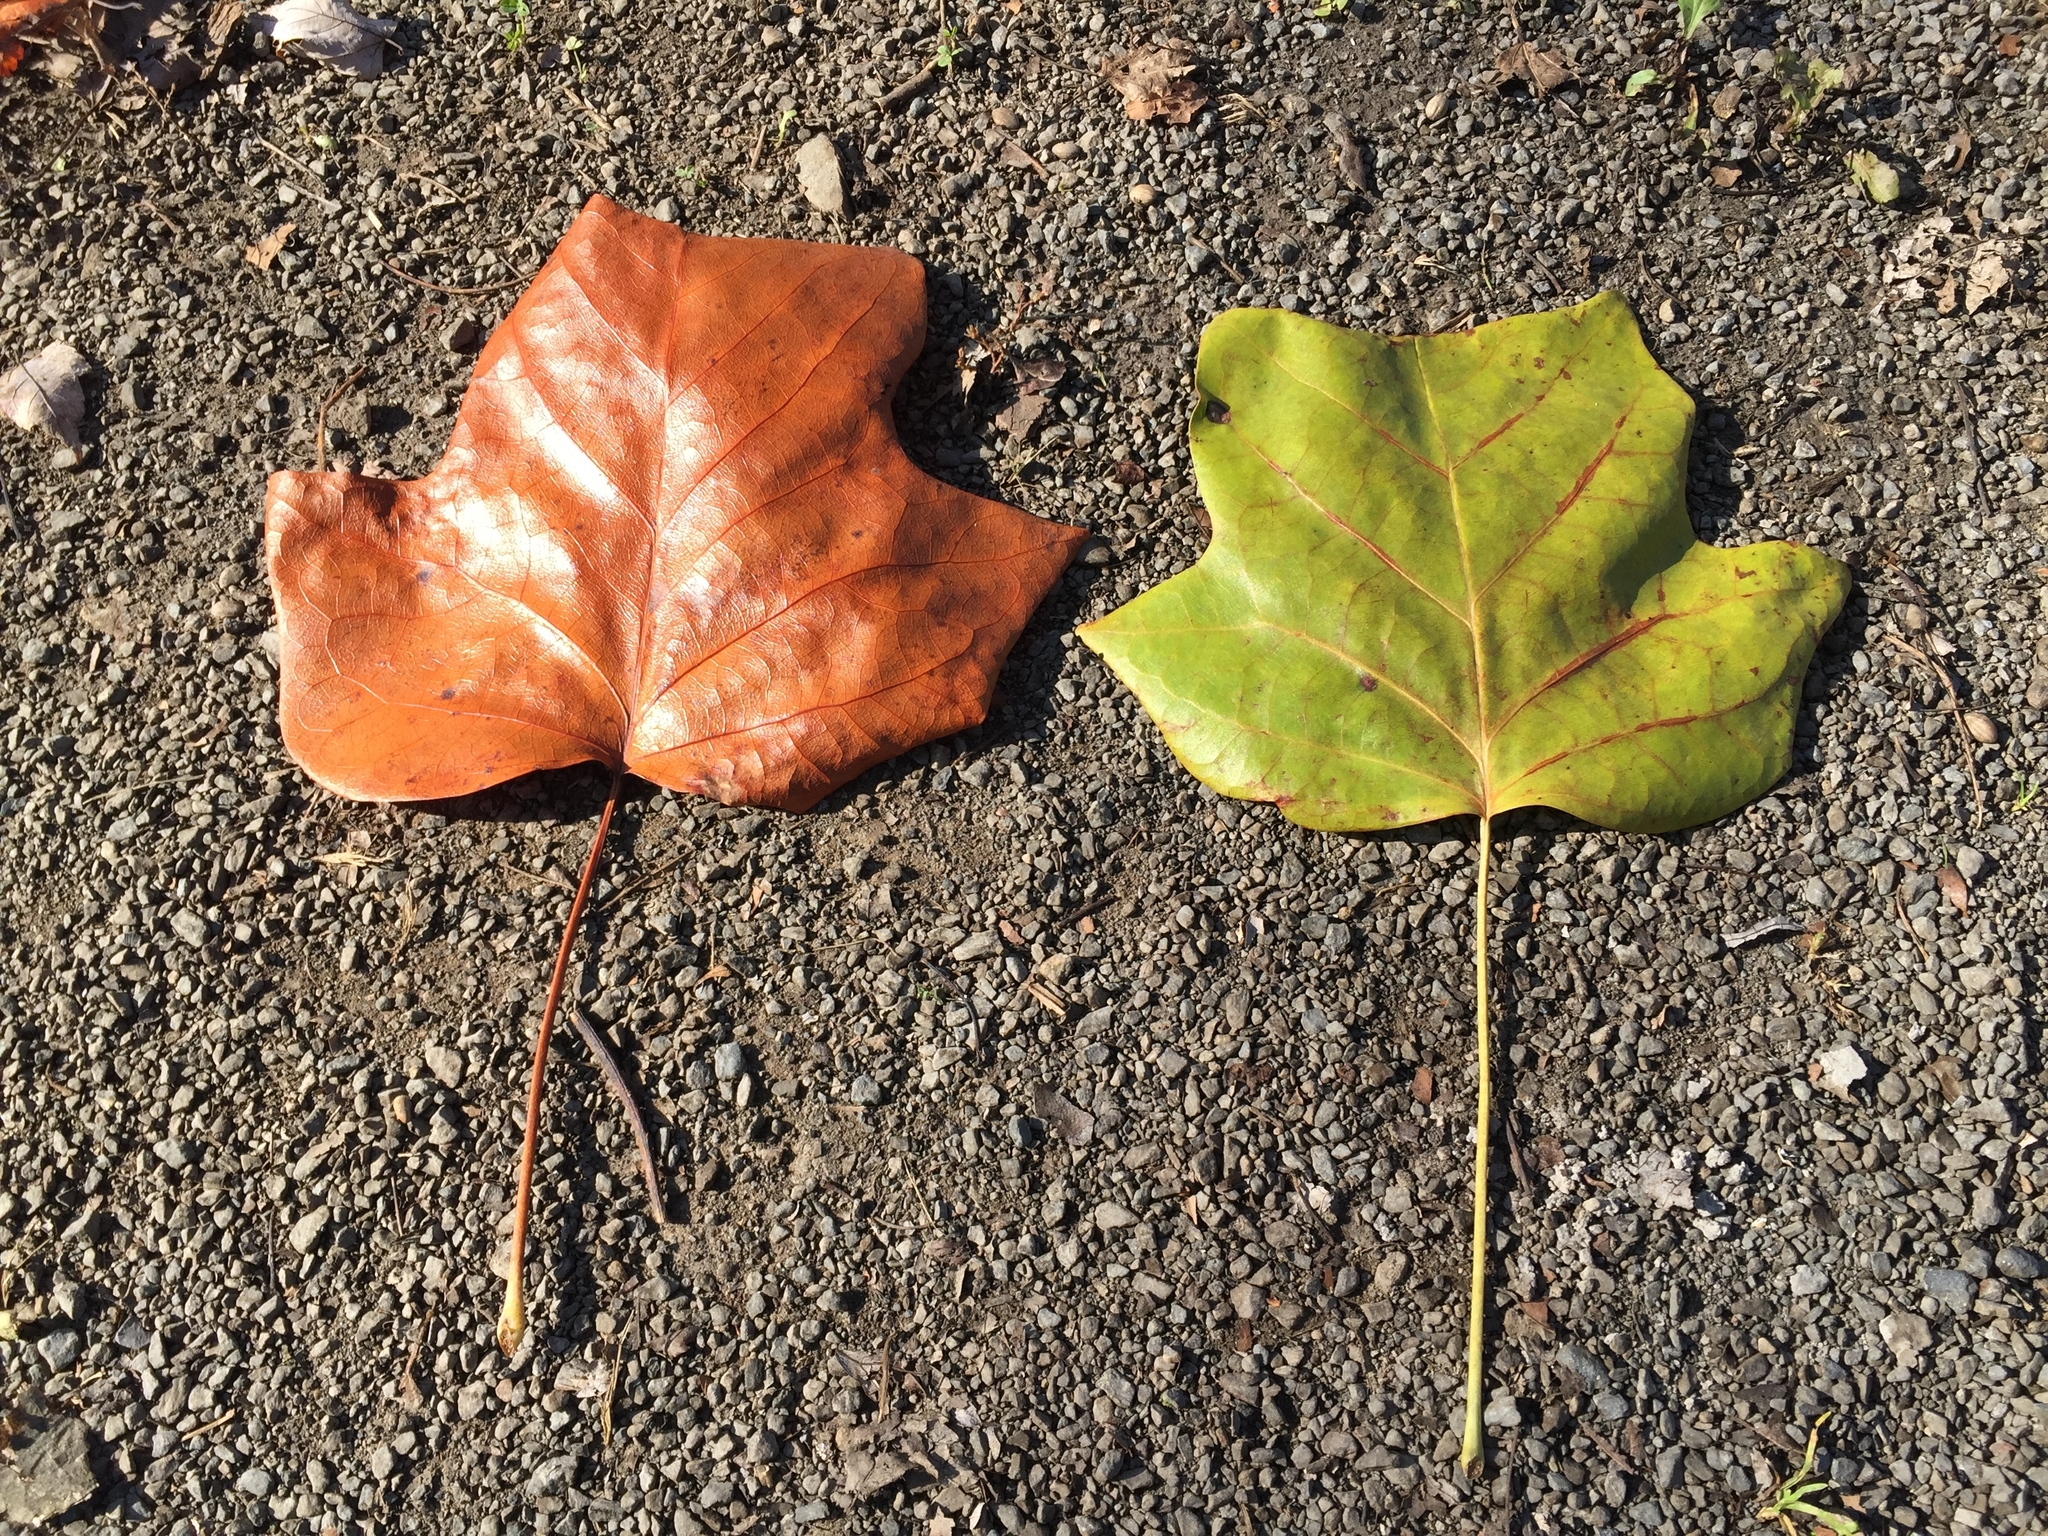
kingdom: Plantae
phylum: Tracheophyta
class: Magnoliopsida
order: Magnoliales
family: Magnoliaceae
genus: Liriodendron
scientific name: Liriodendron tulipifera
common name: Tulip tree
